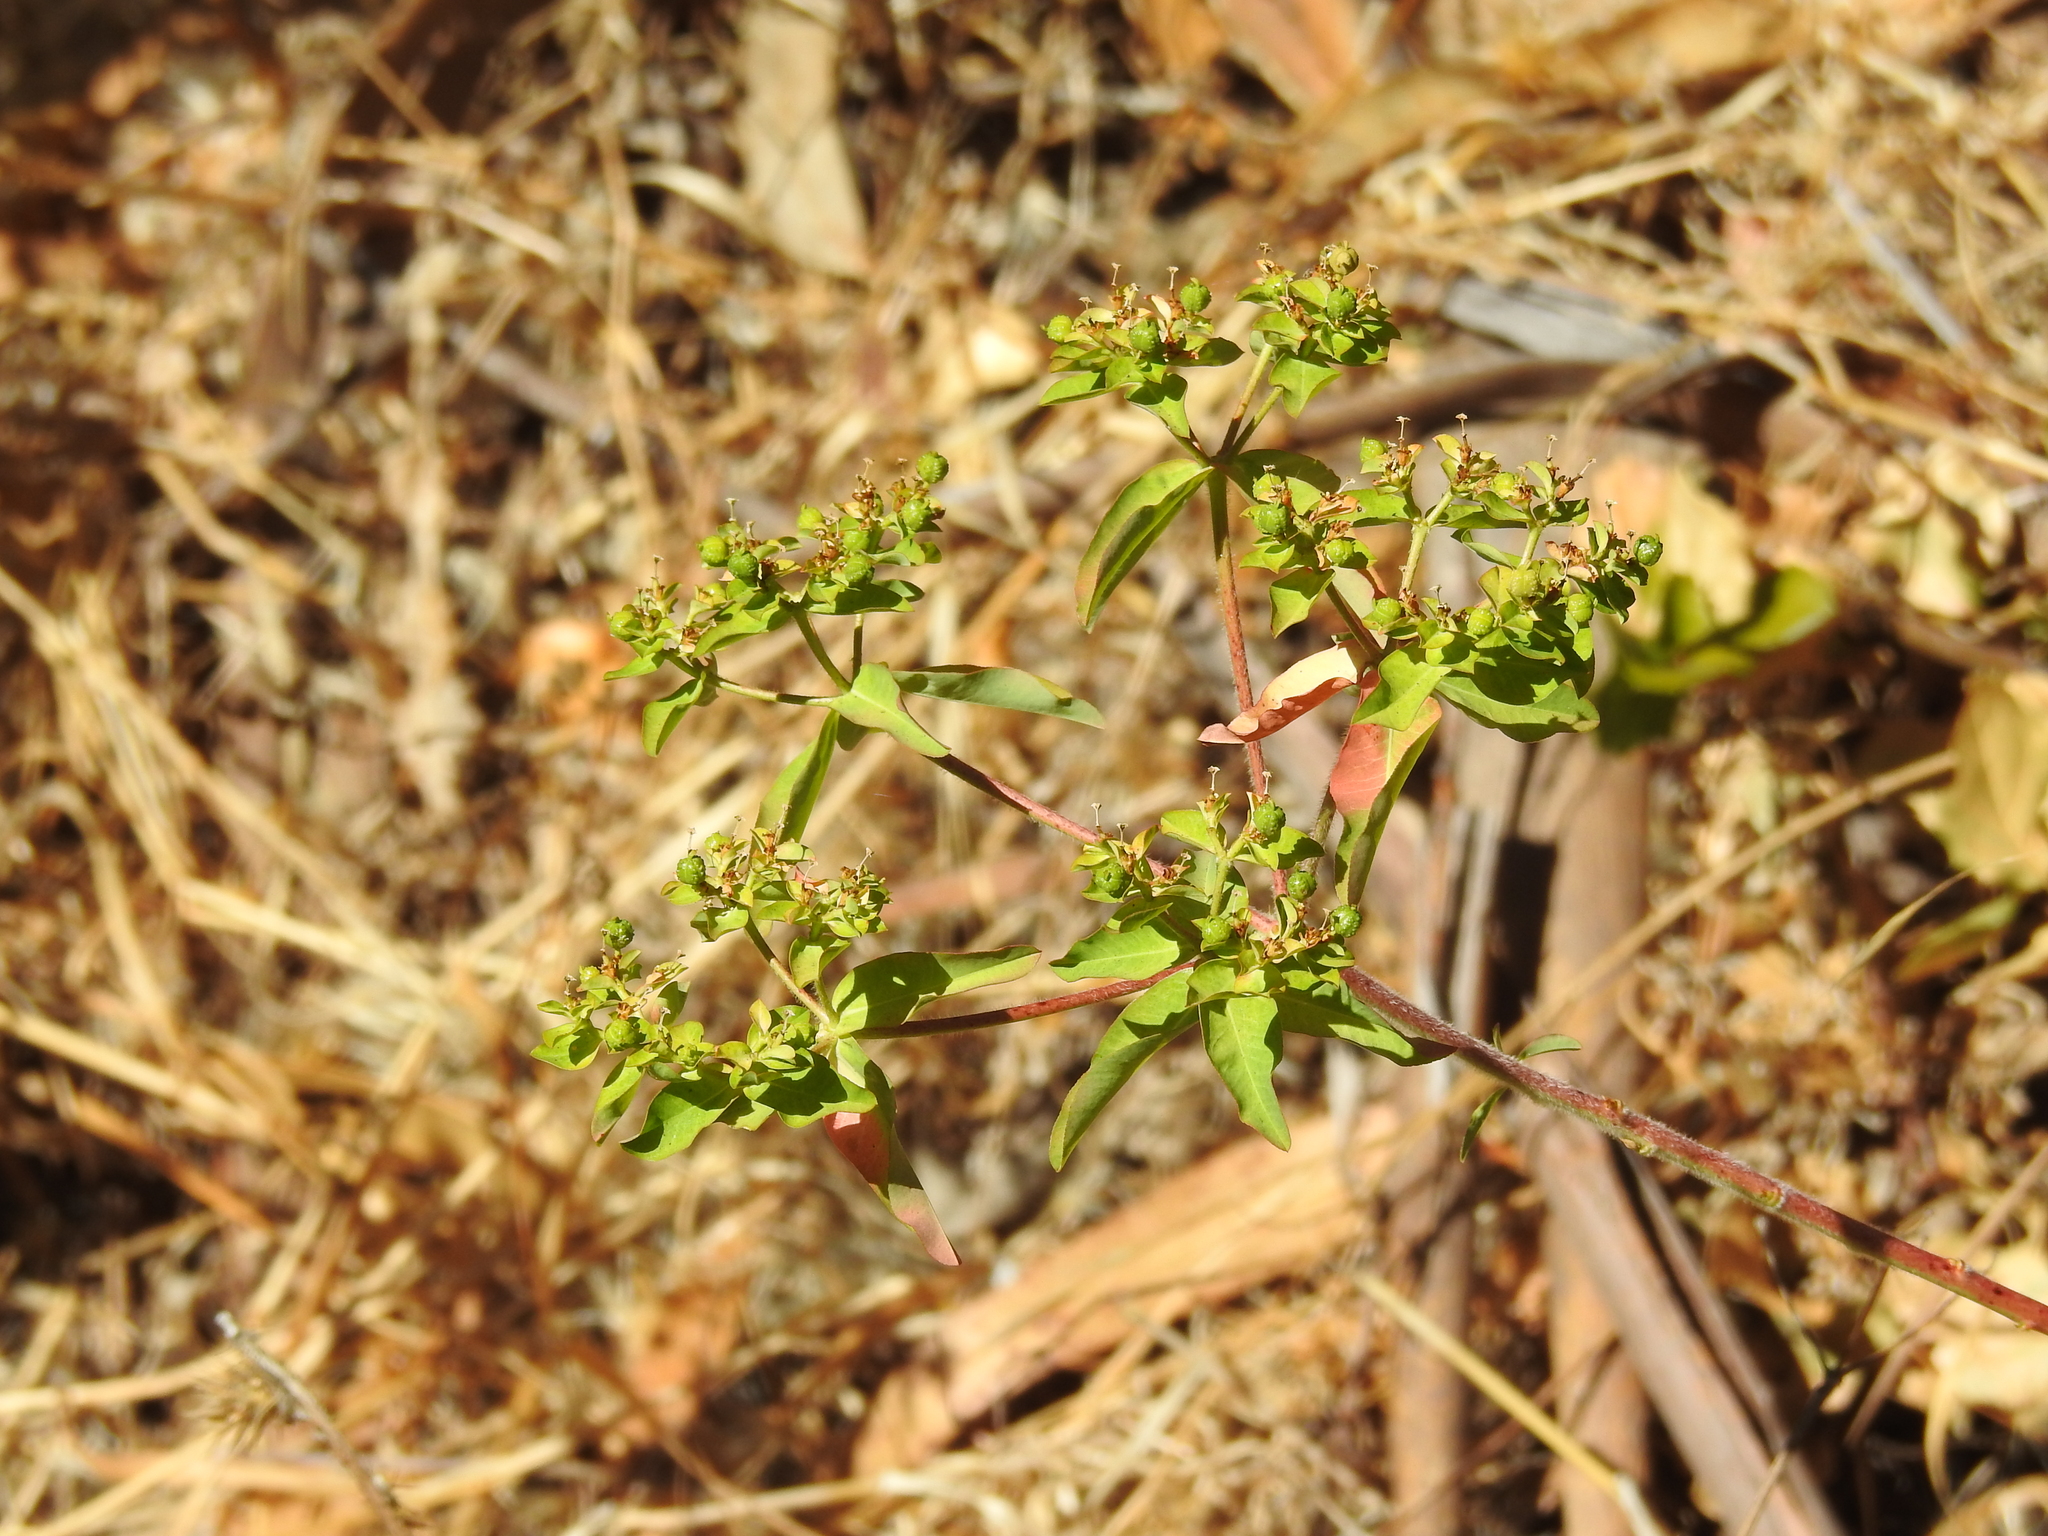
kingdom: Plantae
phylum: Tracheophyta
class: Magnoliopsida
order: Malpighiales
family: Euphorbiaceae
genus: Euphorbia
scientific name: Euphorbia oblongata
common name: Balkan spurge
